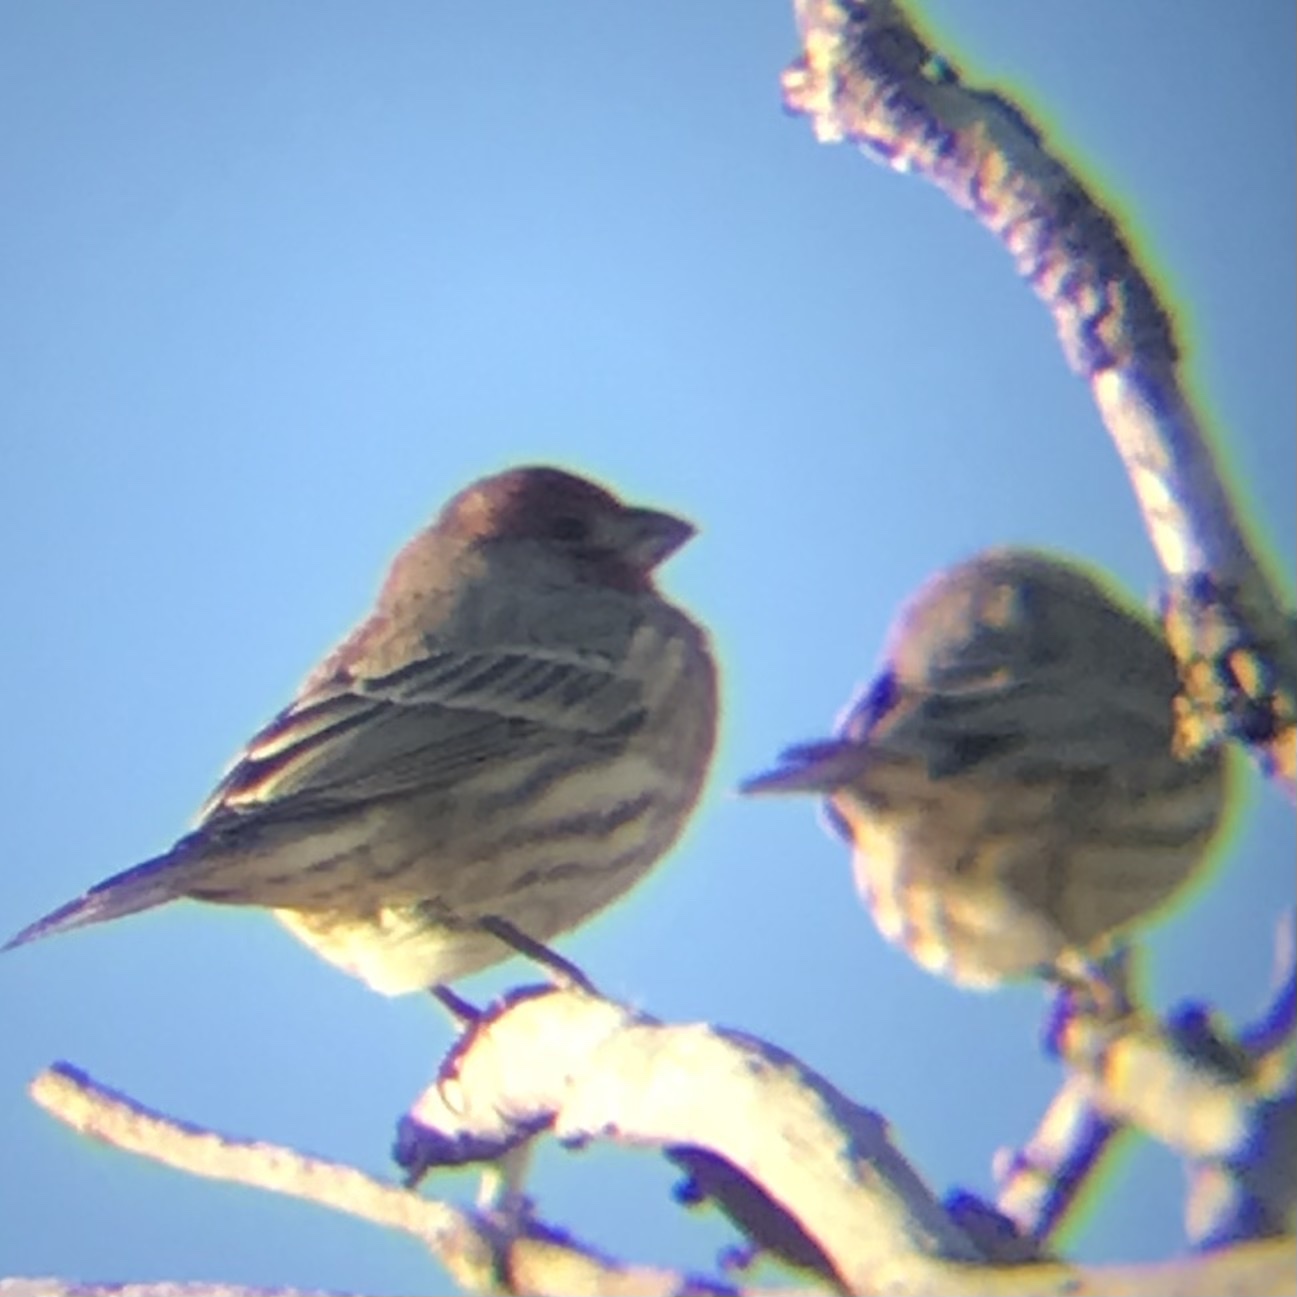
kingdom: Animalia
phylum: Chordata
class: Aves
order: Passeriformes
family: Fringillidae
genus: Haemorhous
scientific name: Haemorhous mexicanus
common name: House finch
